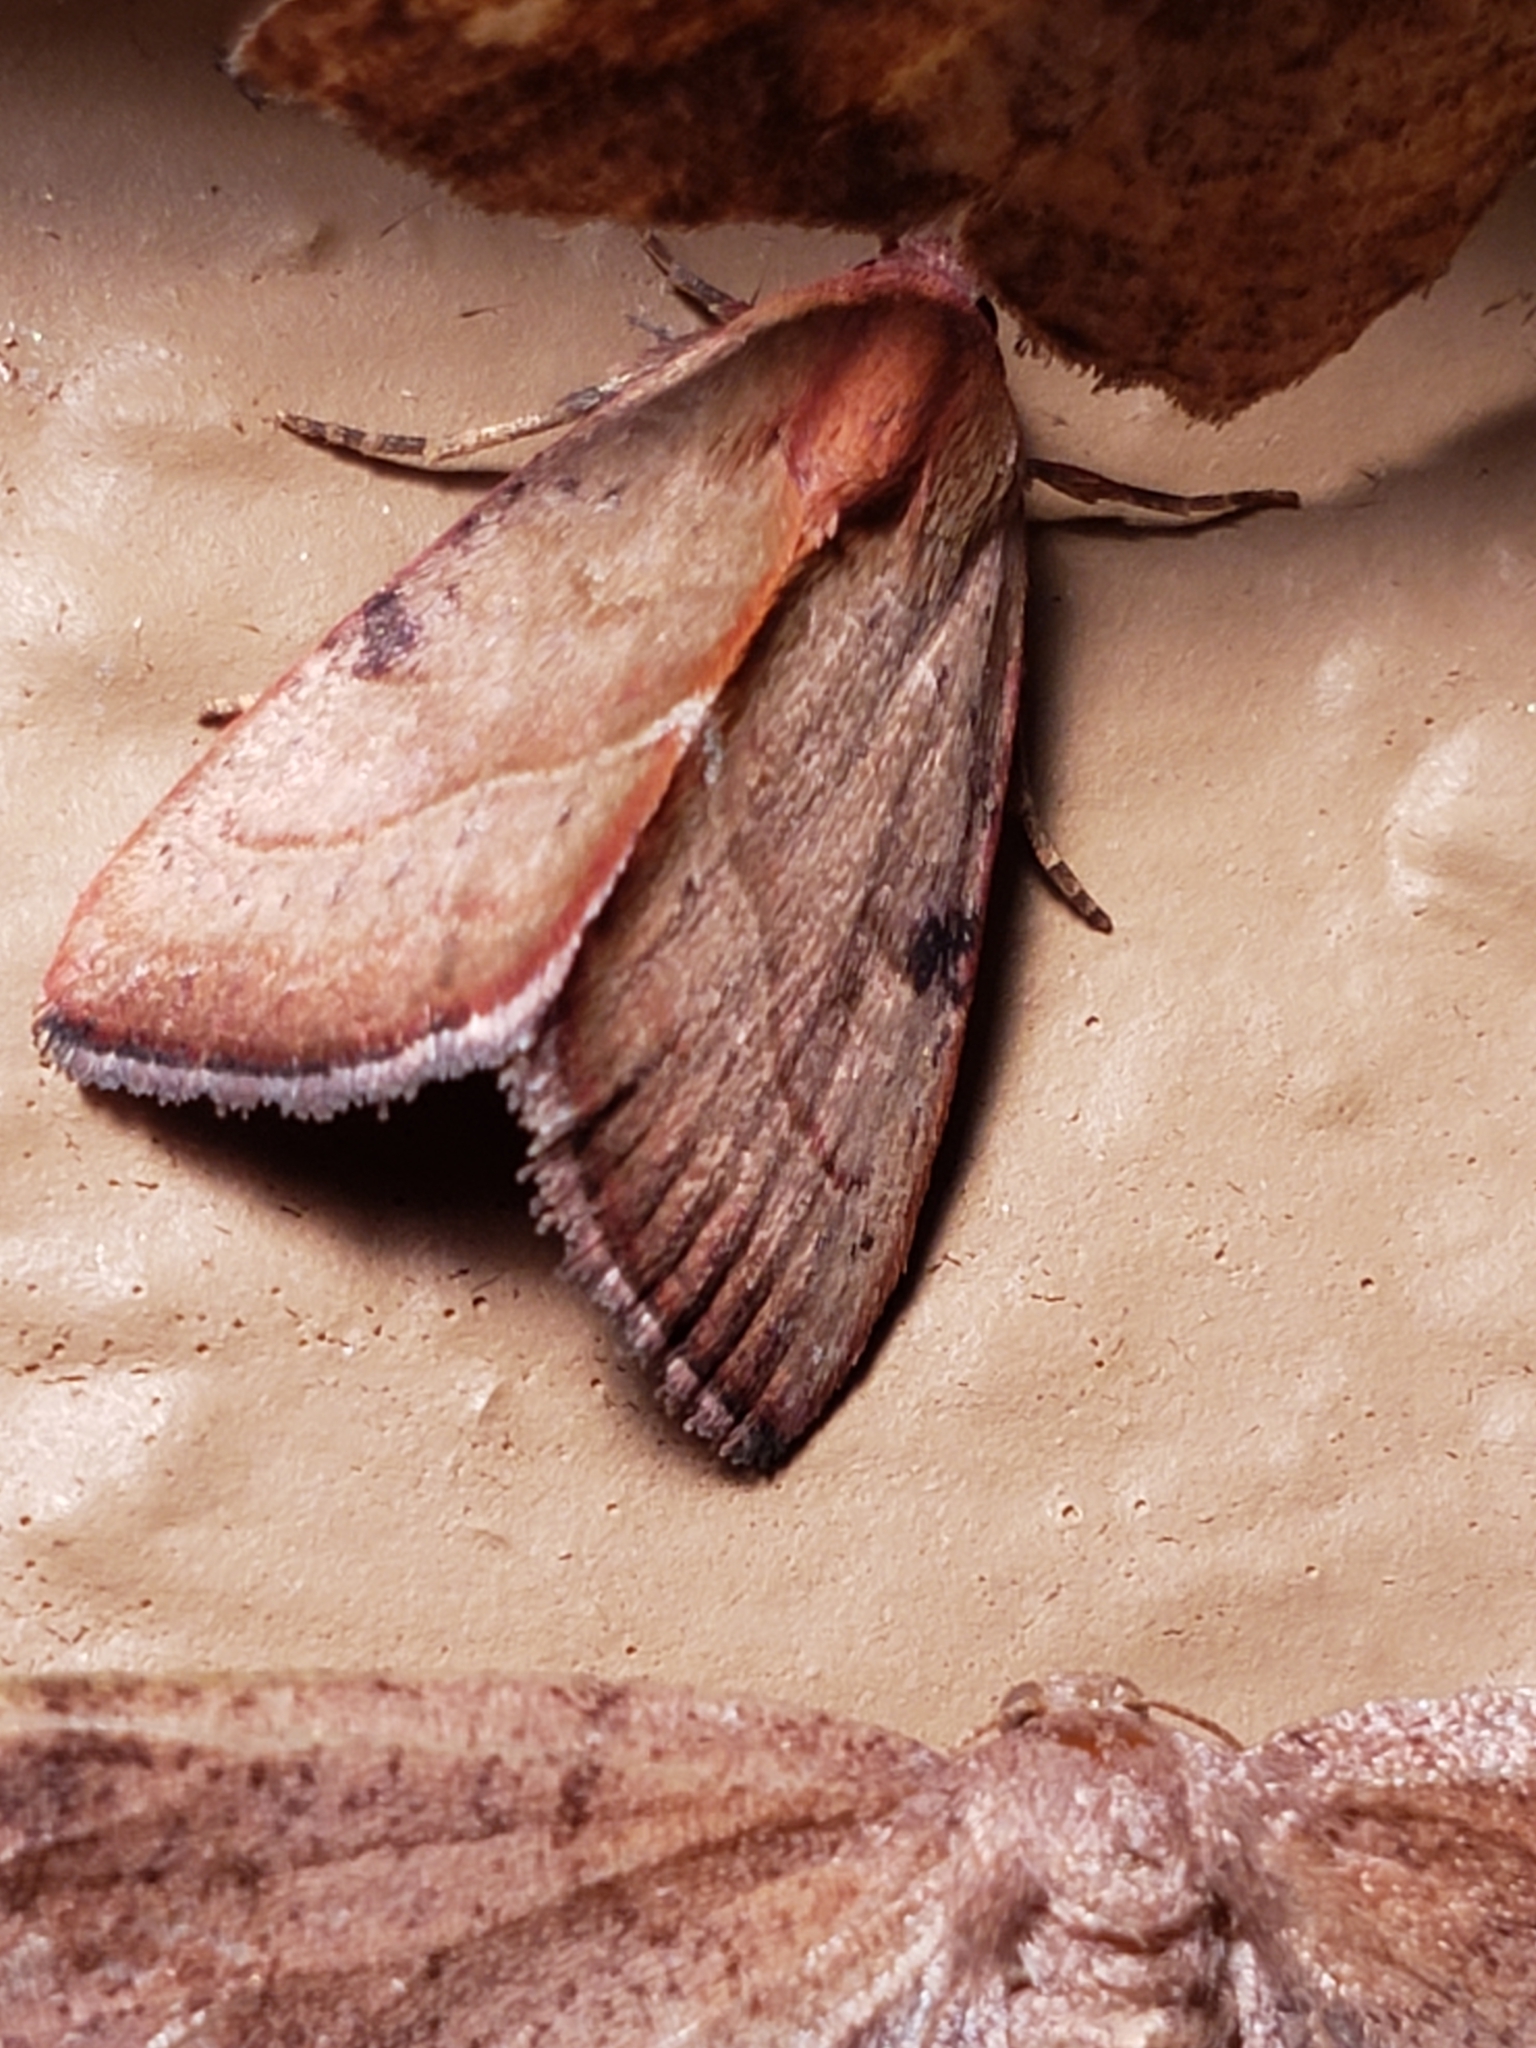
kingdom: Animalia
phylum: Arthropoda
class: Insecta
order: Lepidoptera
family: Noctuidae
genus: Galgula
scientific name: Galgula partita
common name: Wedgeling
